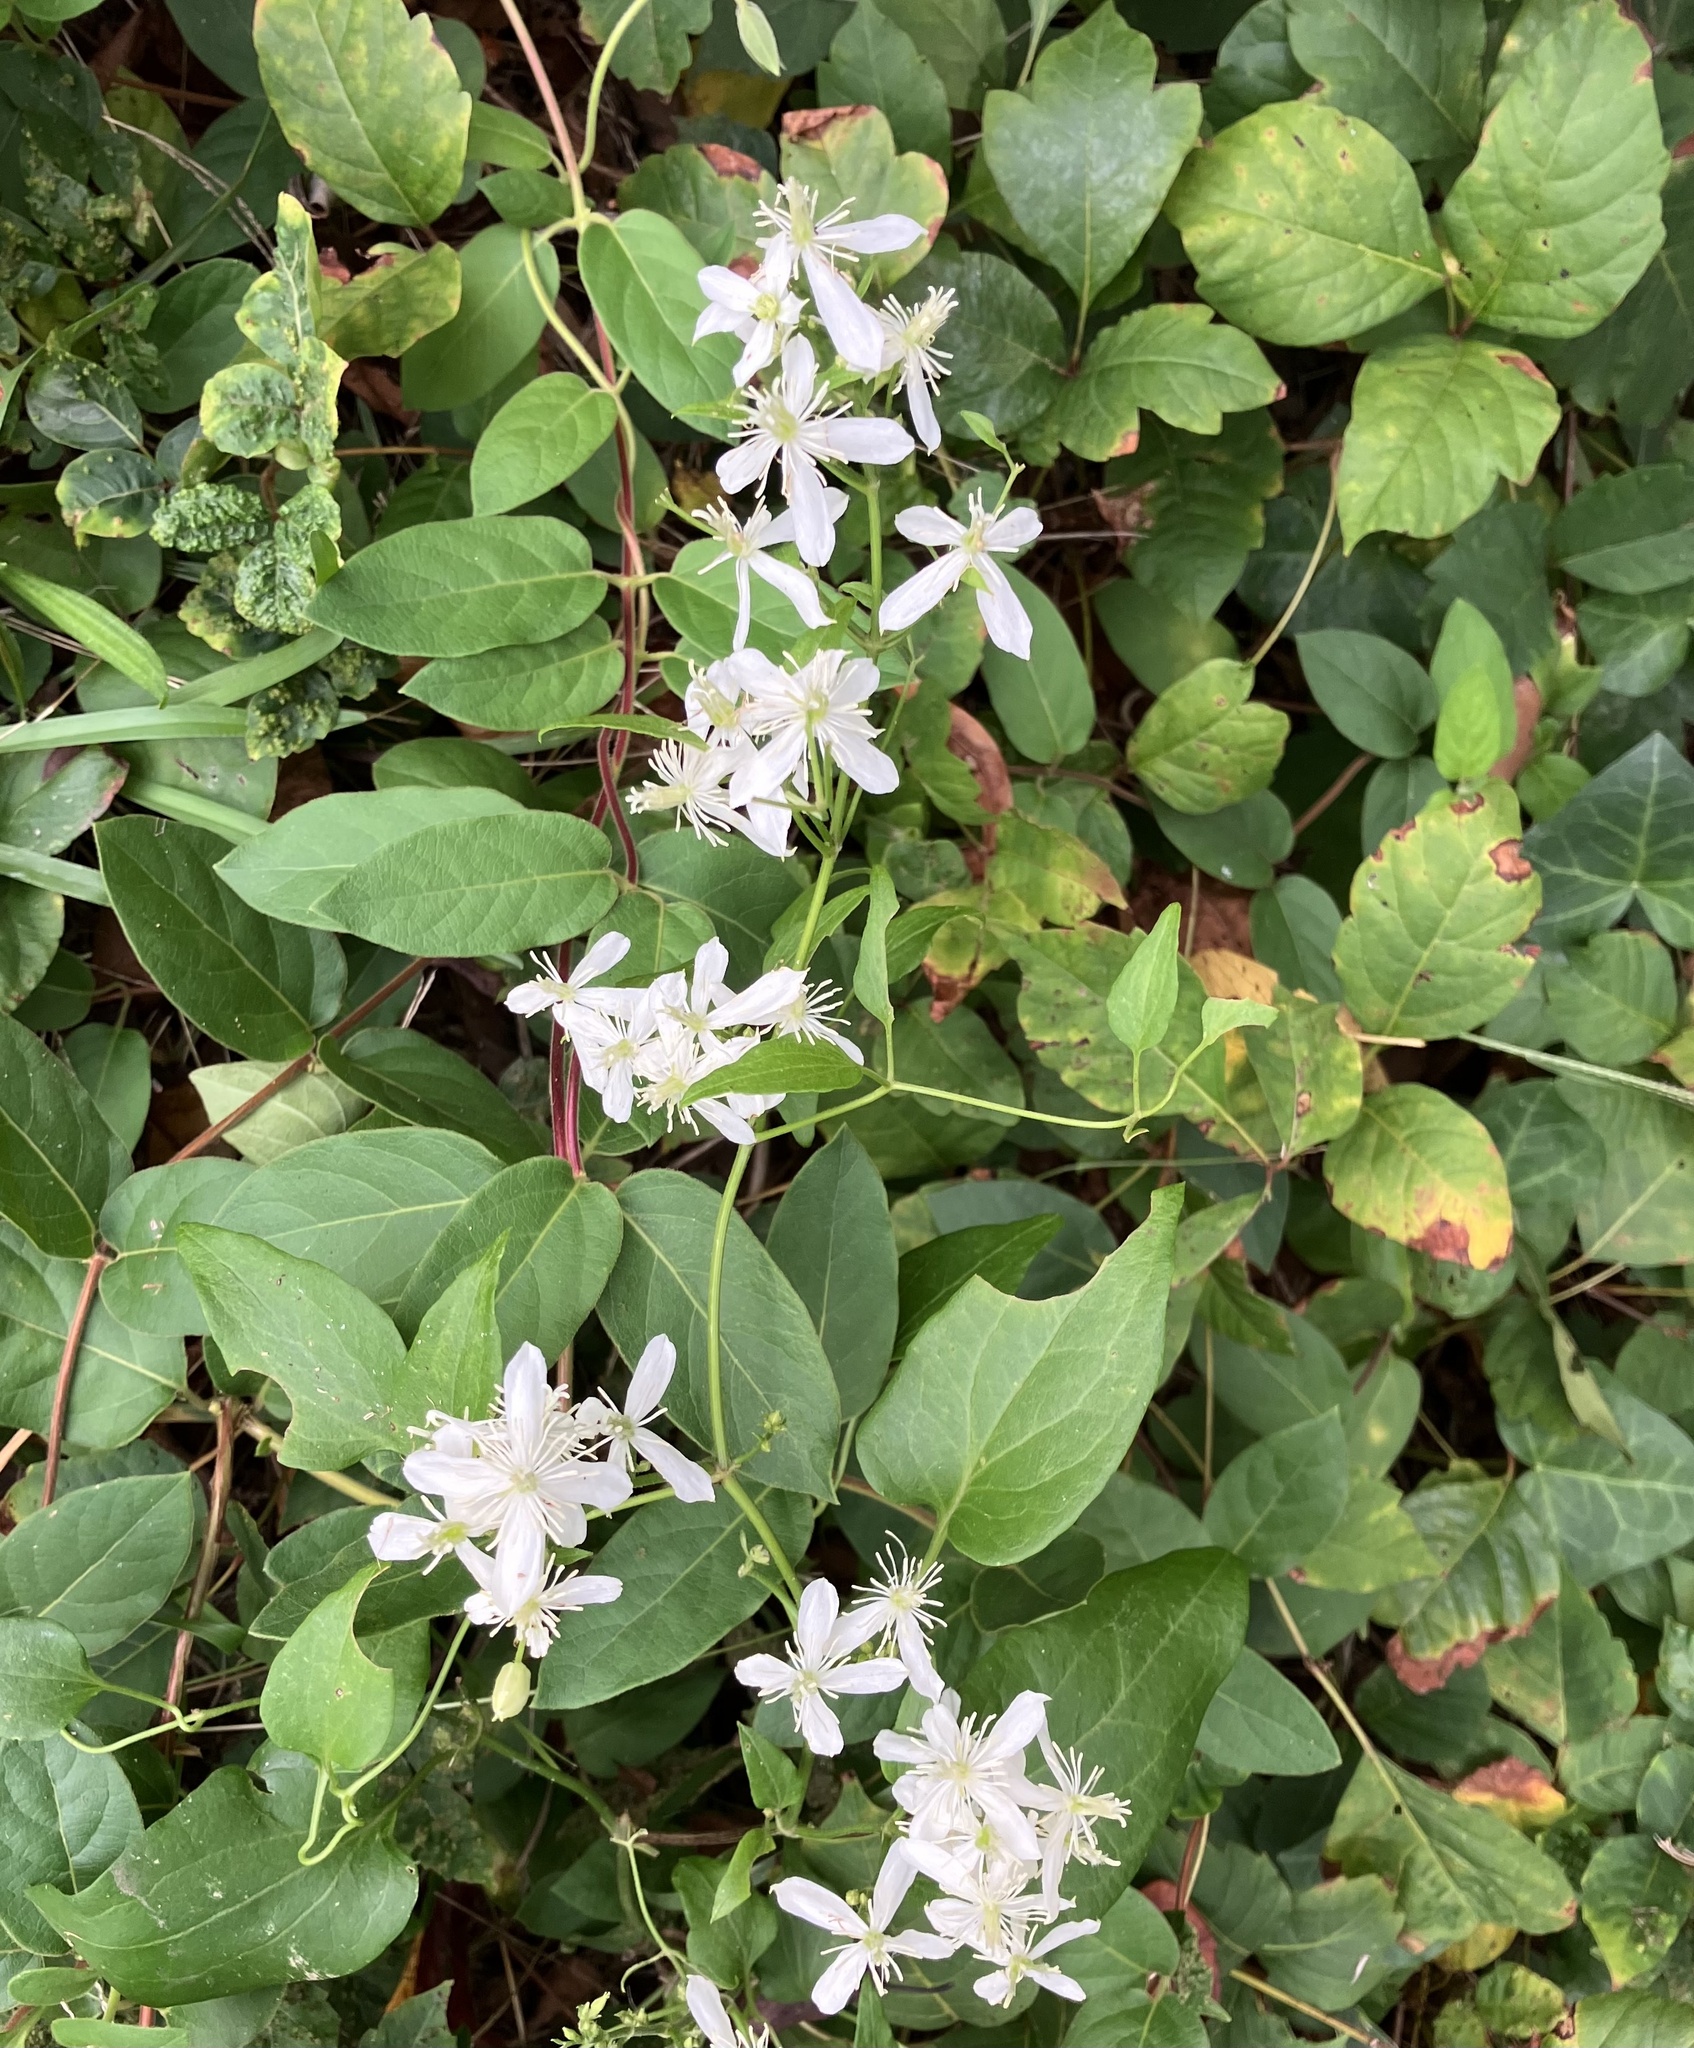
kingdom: Plantae
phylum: Tracheophyta
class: Magnoliopsida
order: Ranunculales
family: Ranunculaceae
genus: Clematis
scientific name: Clematis terniflora
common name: Sweet autumn clematis
